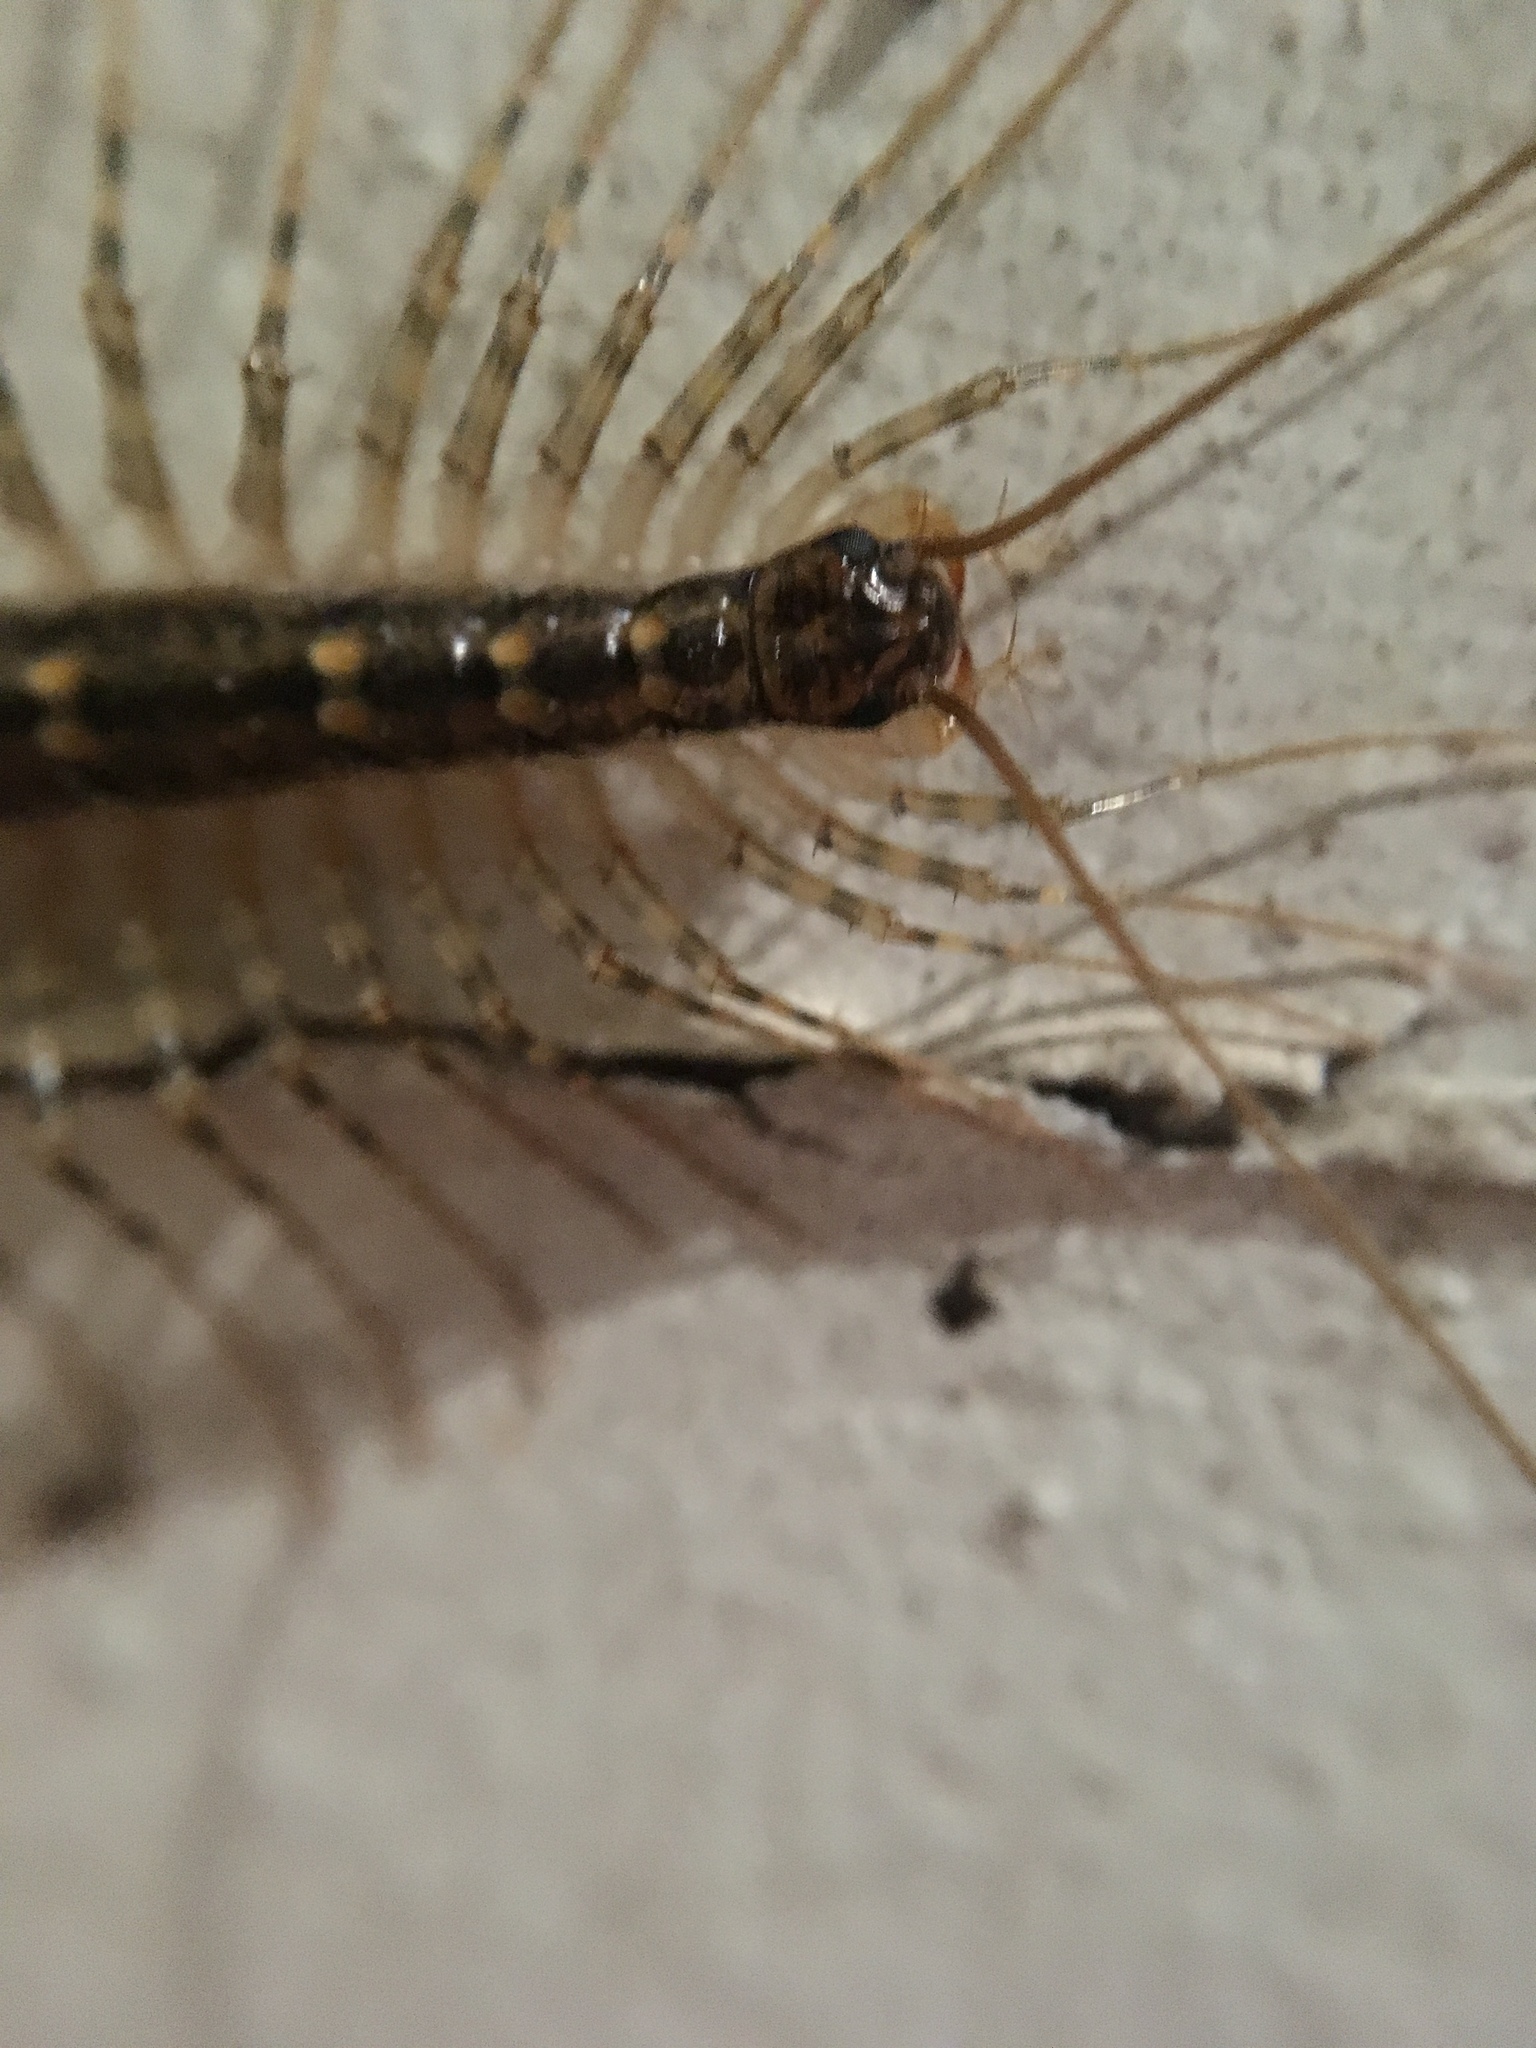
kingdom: Animalia
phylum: Arthropoda
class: Chilopoda
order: Scutigeromorpha
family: Scutigeridae
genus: Scutigera
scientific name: Scutigera coleoptrata
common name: House centipede
